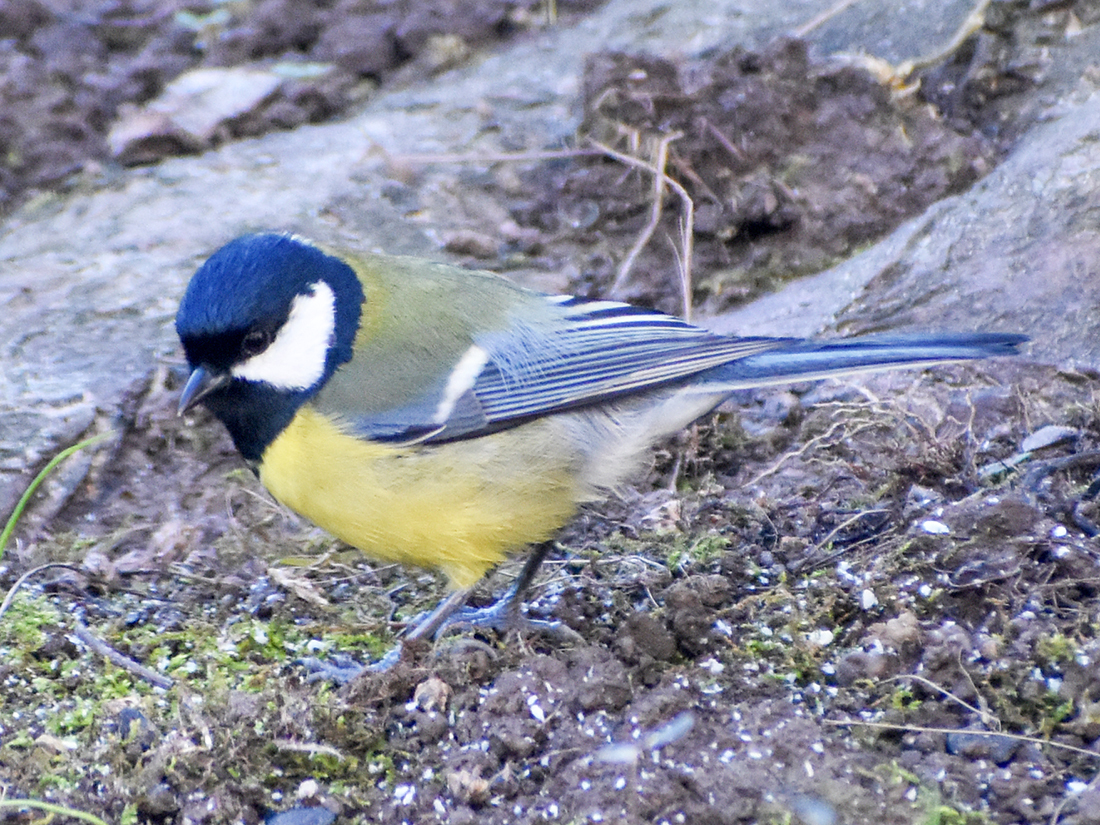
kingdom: Animalia
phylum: Chordata
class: Aves
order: Passeriformes
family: Paridae
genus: Parus
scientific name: Parus major
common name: Great tit
